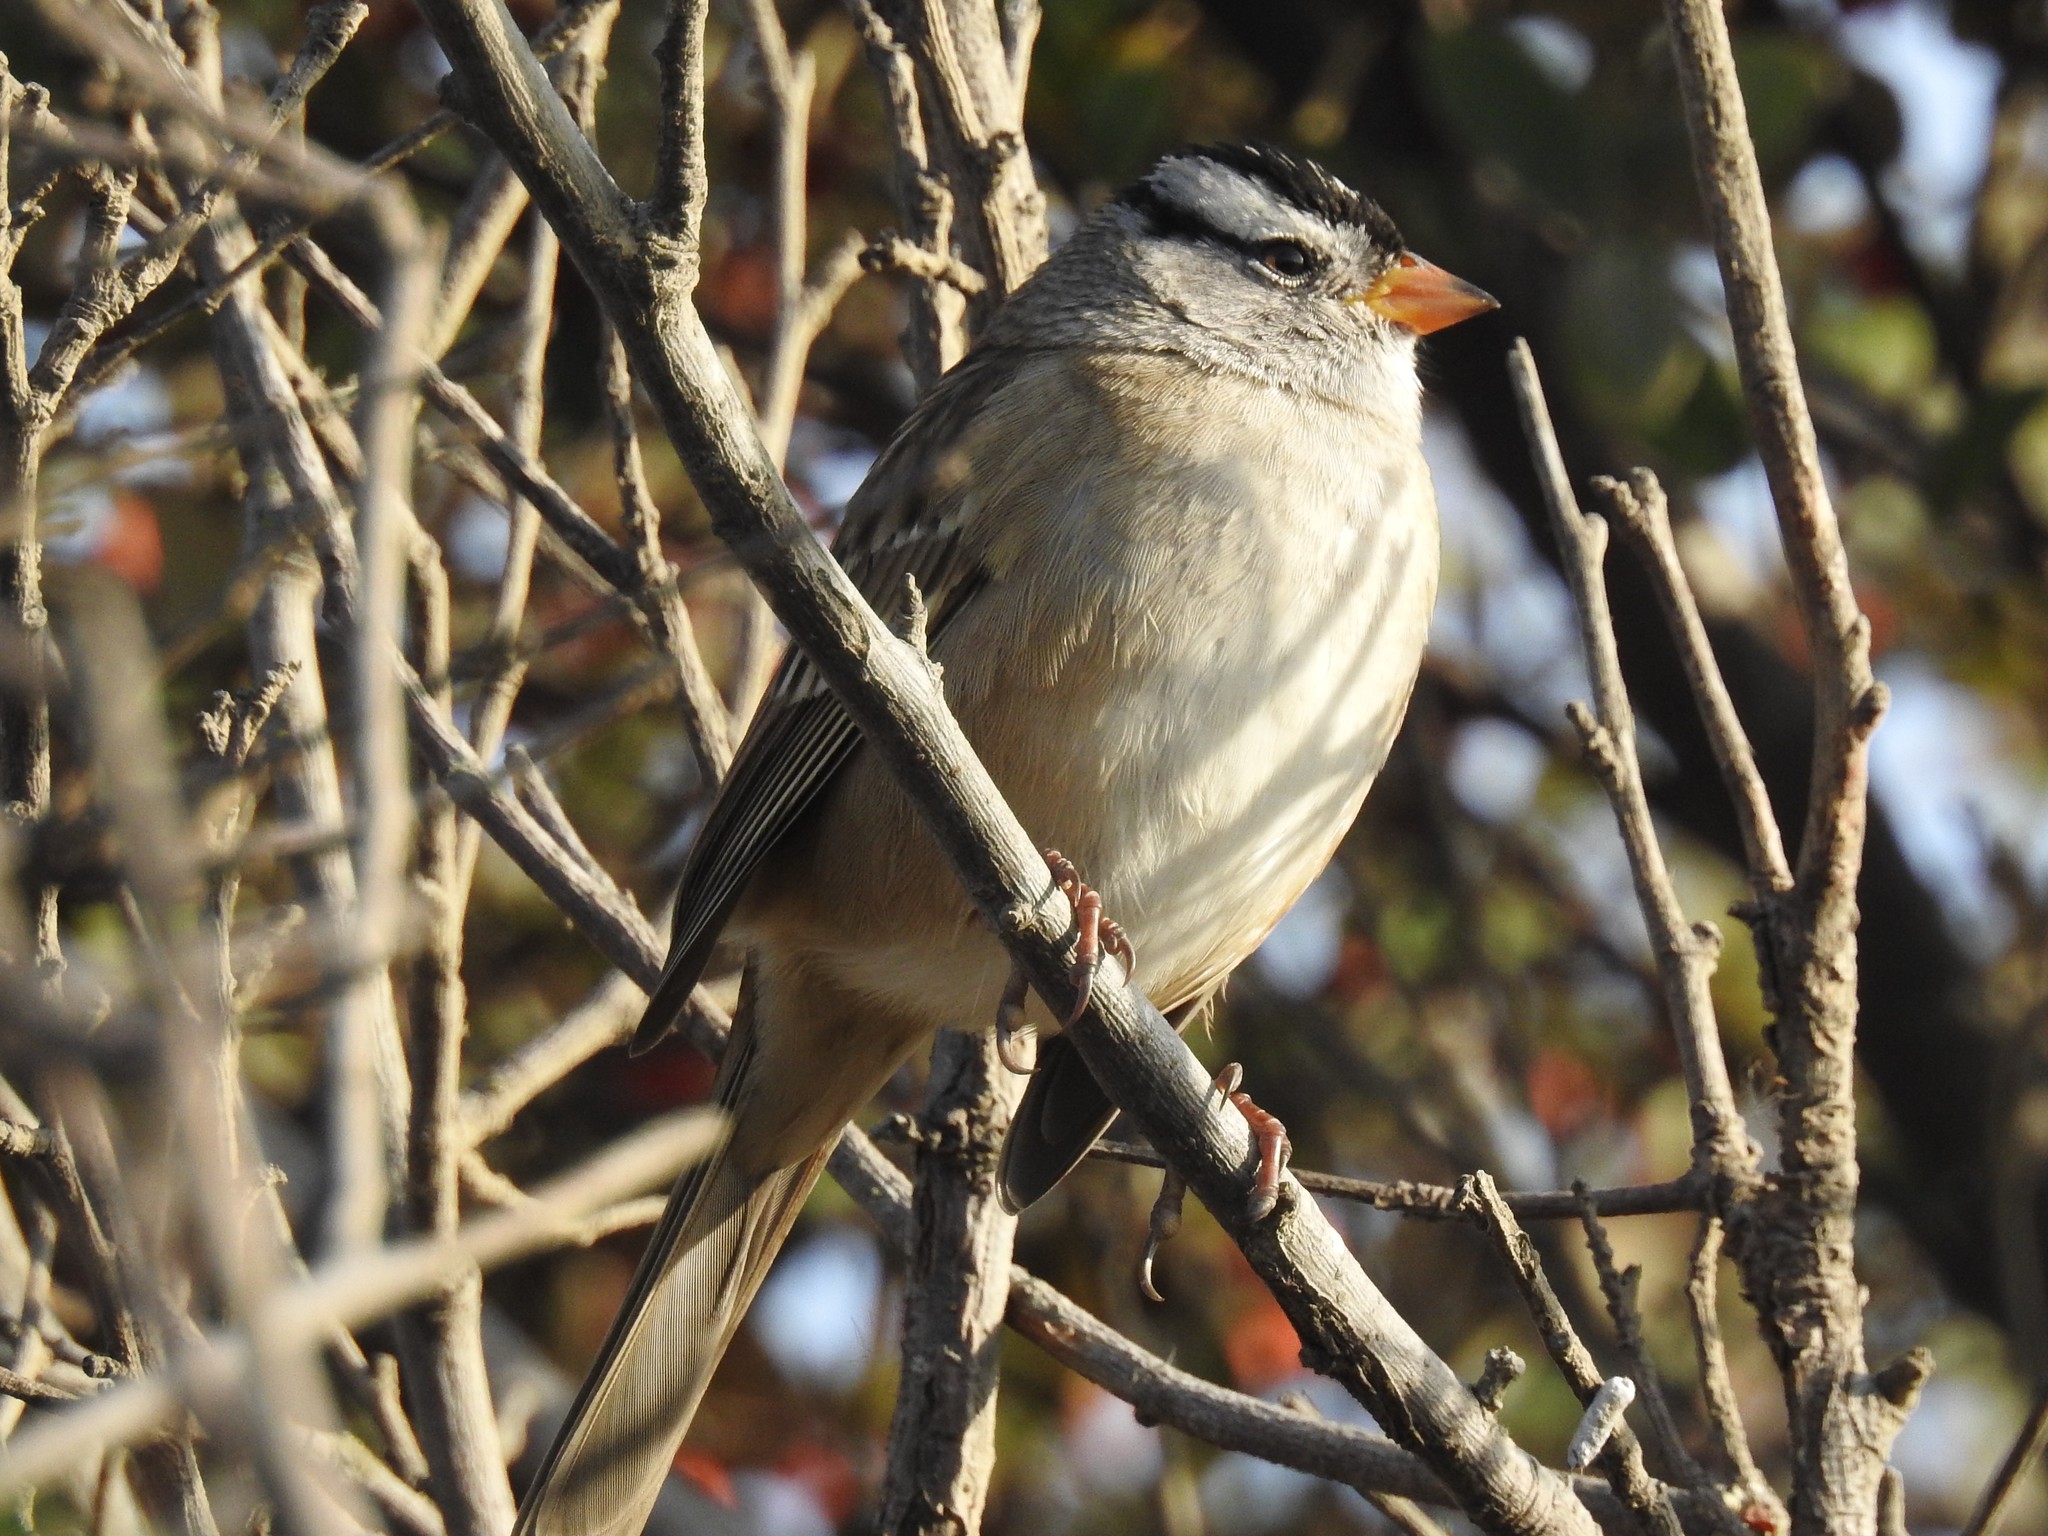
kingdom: Animalia
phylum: Chordata
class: Aves
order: Passeriformes
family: Passerellidae
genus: Zonotrichia
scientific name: Zonotrichia leucophrys
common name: White-crowned sparrow
